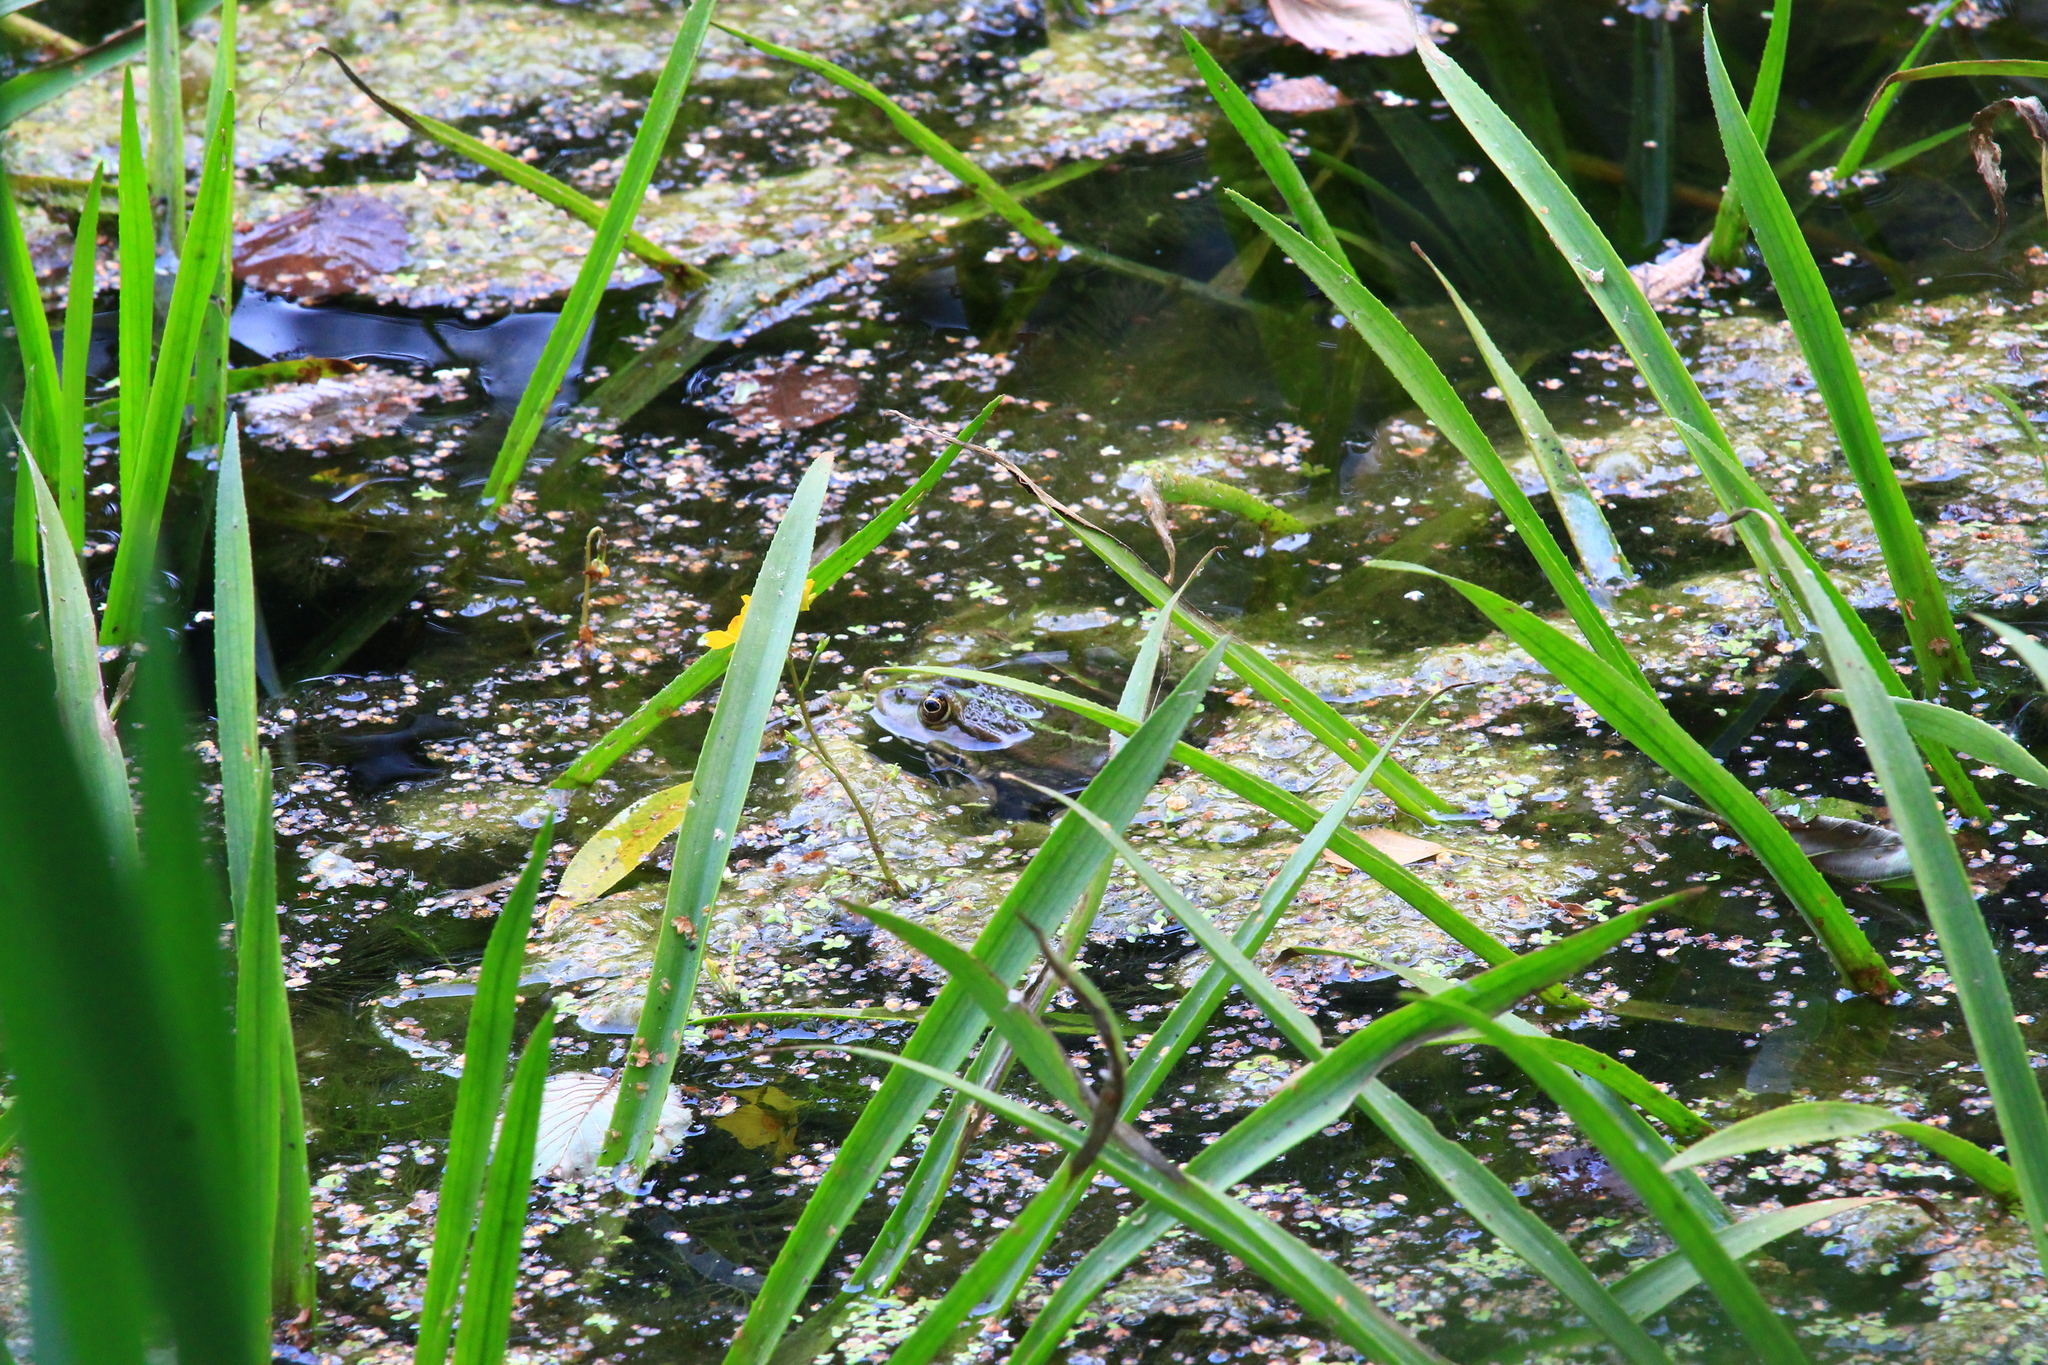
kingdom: Animalia
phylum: Chordata
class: Amphibia
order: Anura
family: Ranidae
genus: Pelophylax
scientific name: Pelophylax ridibundus
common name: Marsh frog
